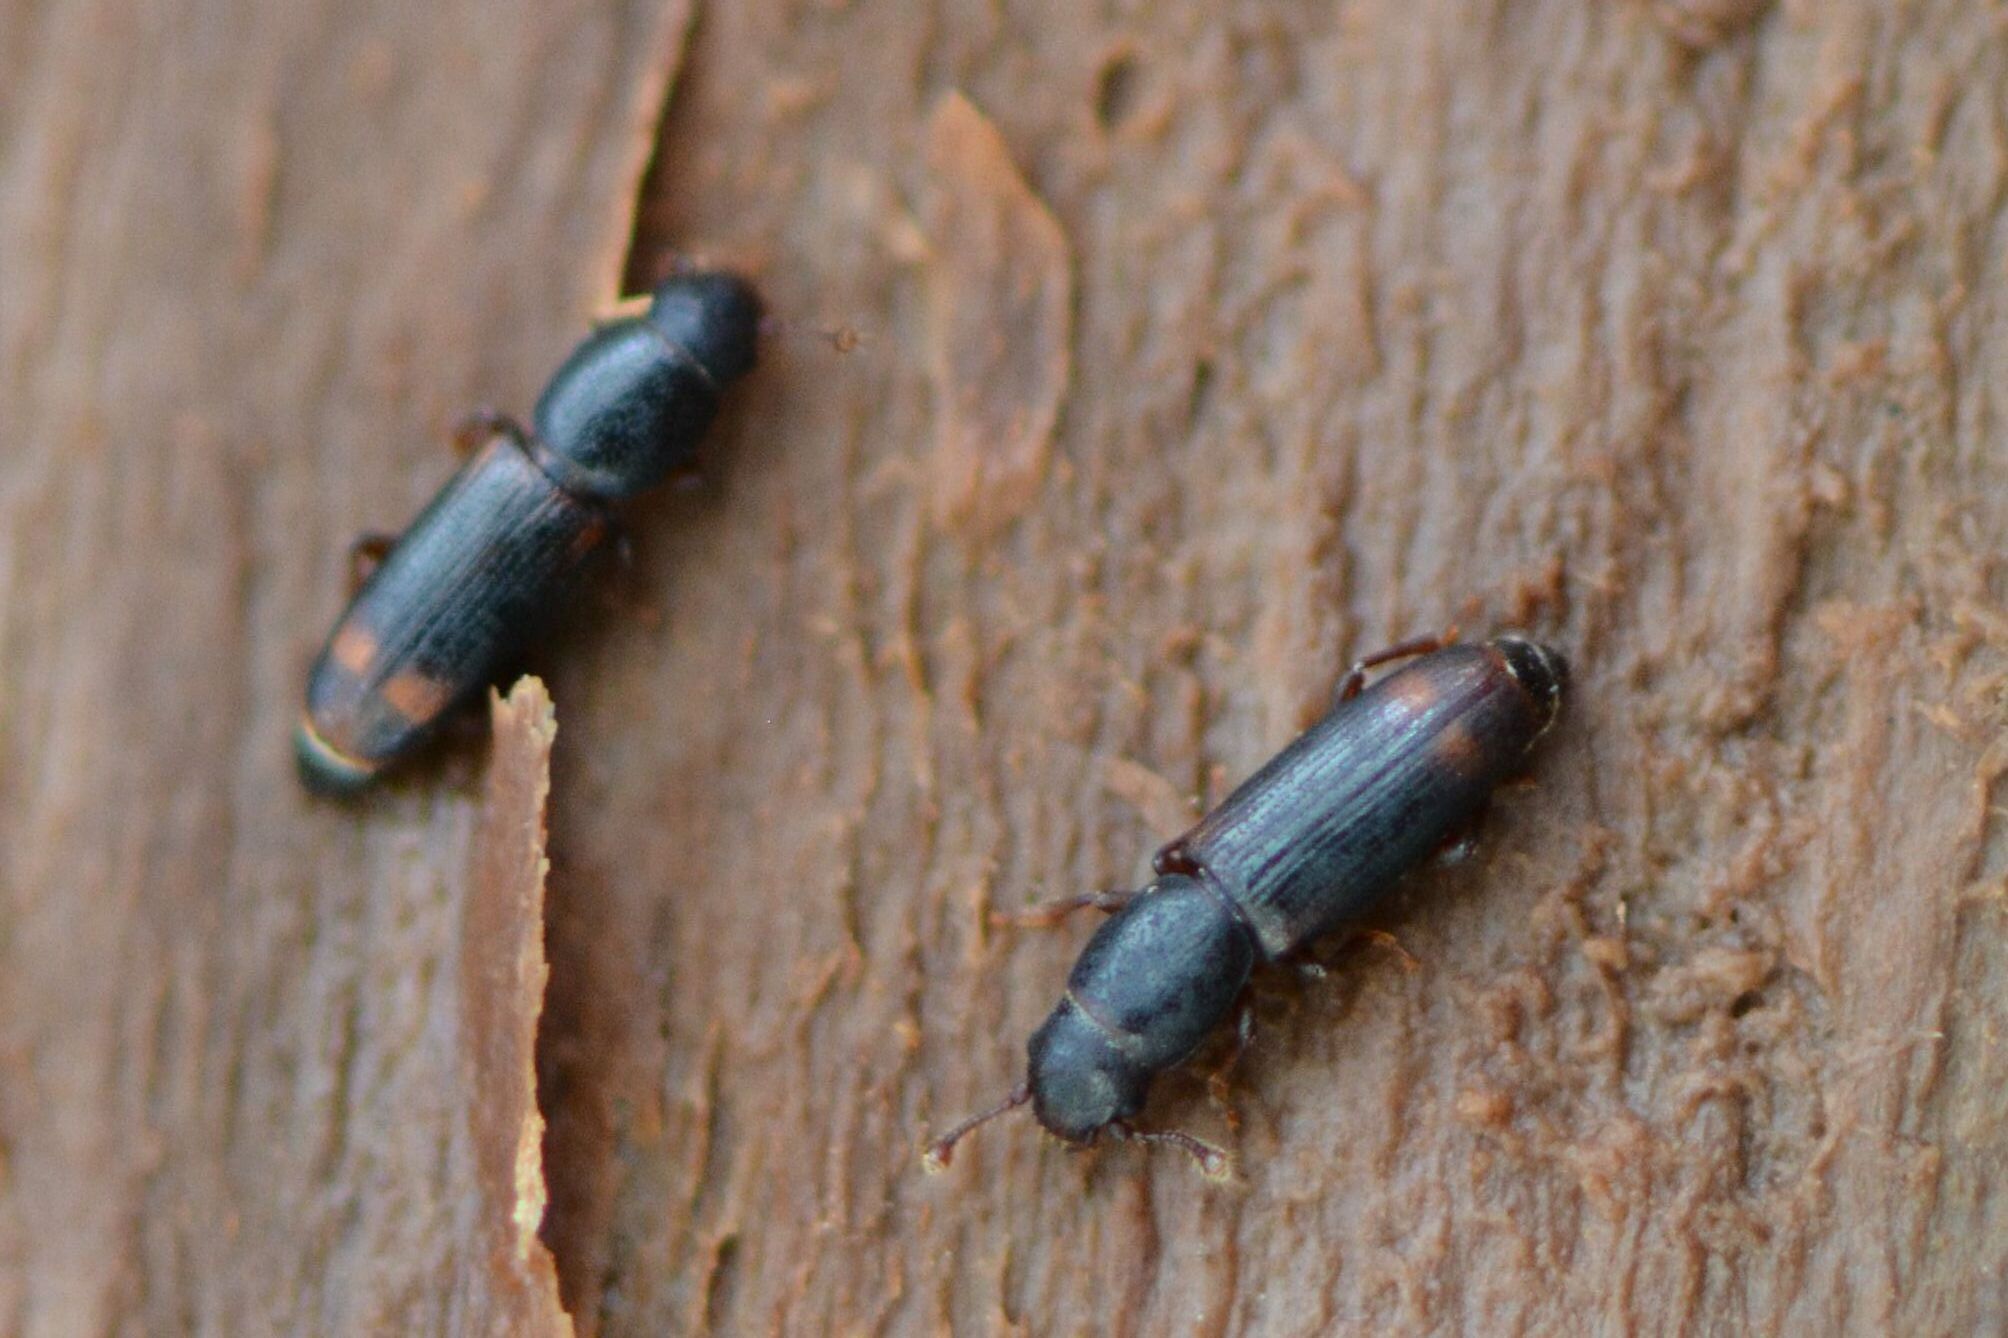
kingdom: Animalia
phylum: Arthropoda
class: Insecta
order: Coleoptera
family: Monotomidae
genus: Rhizophagus
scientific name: Rhizophagus bipustulatus
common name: Root-eating beetle
